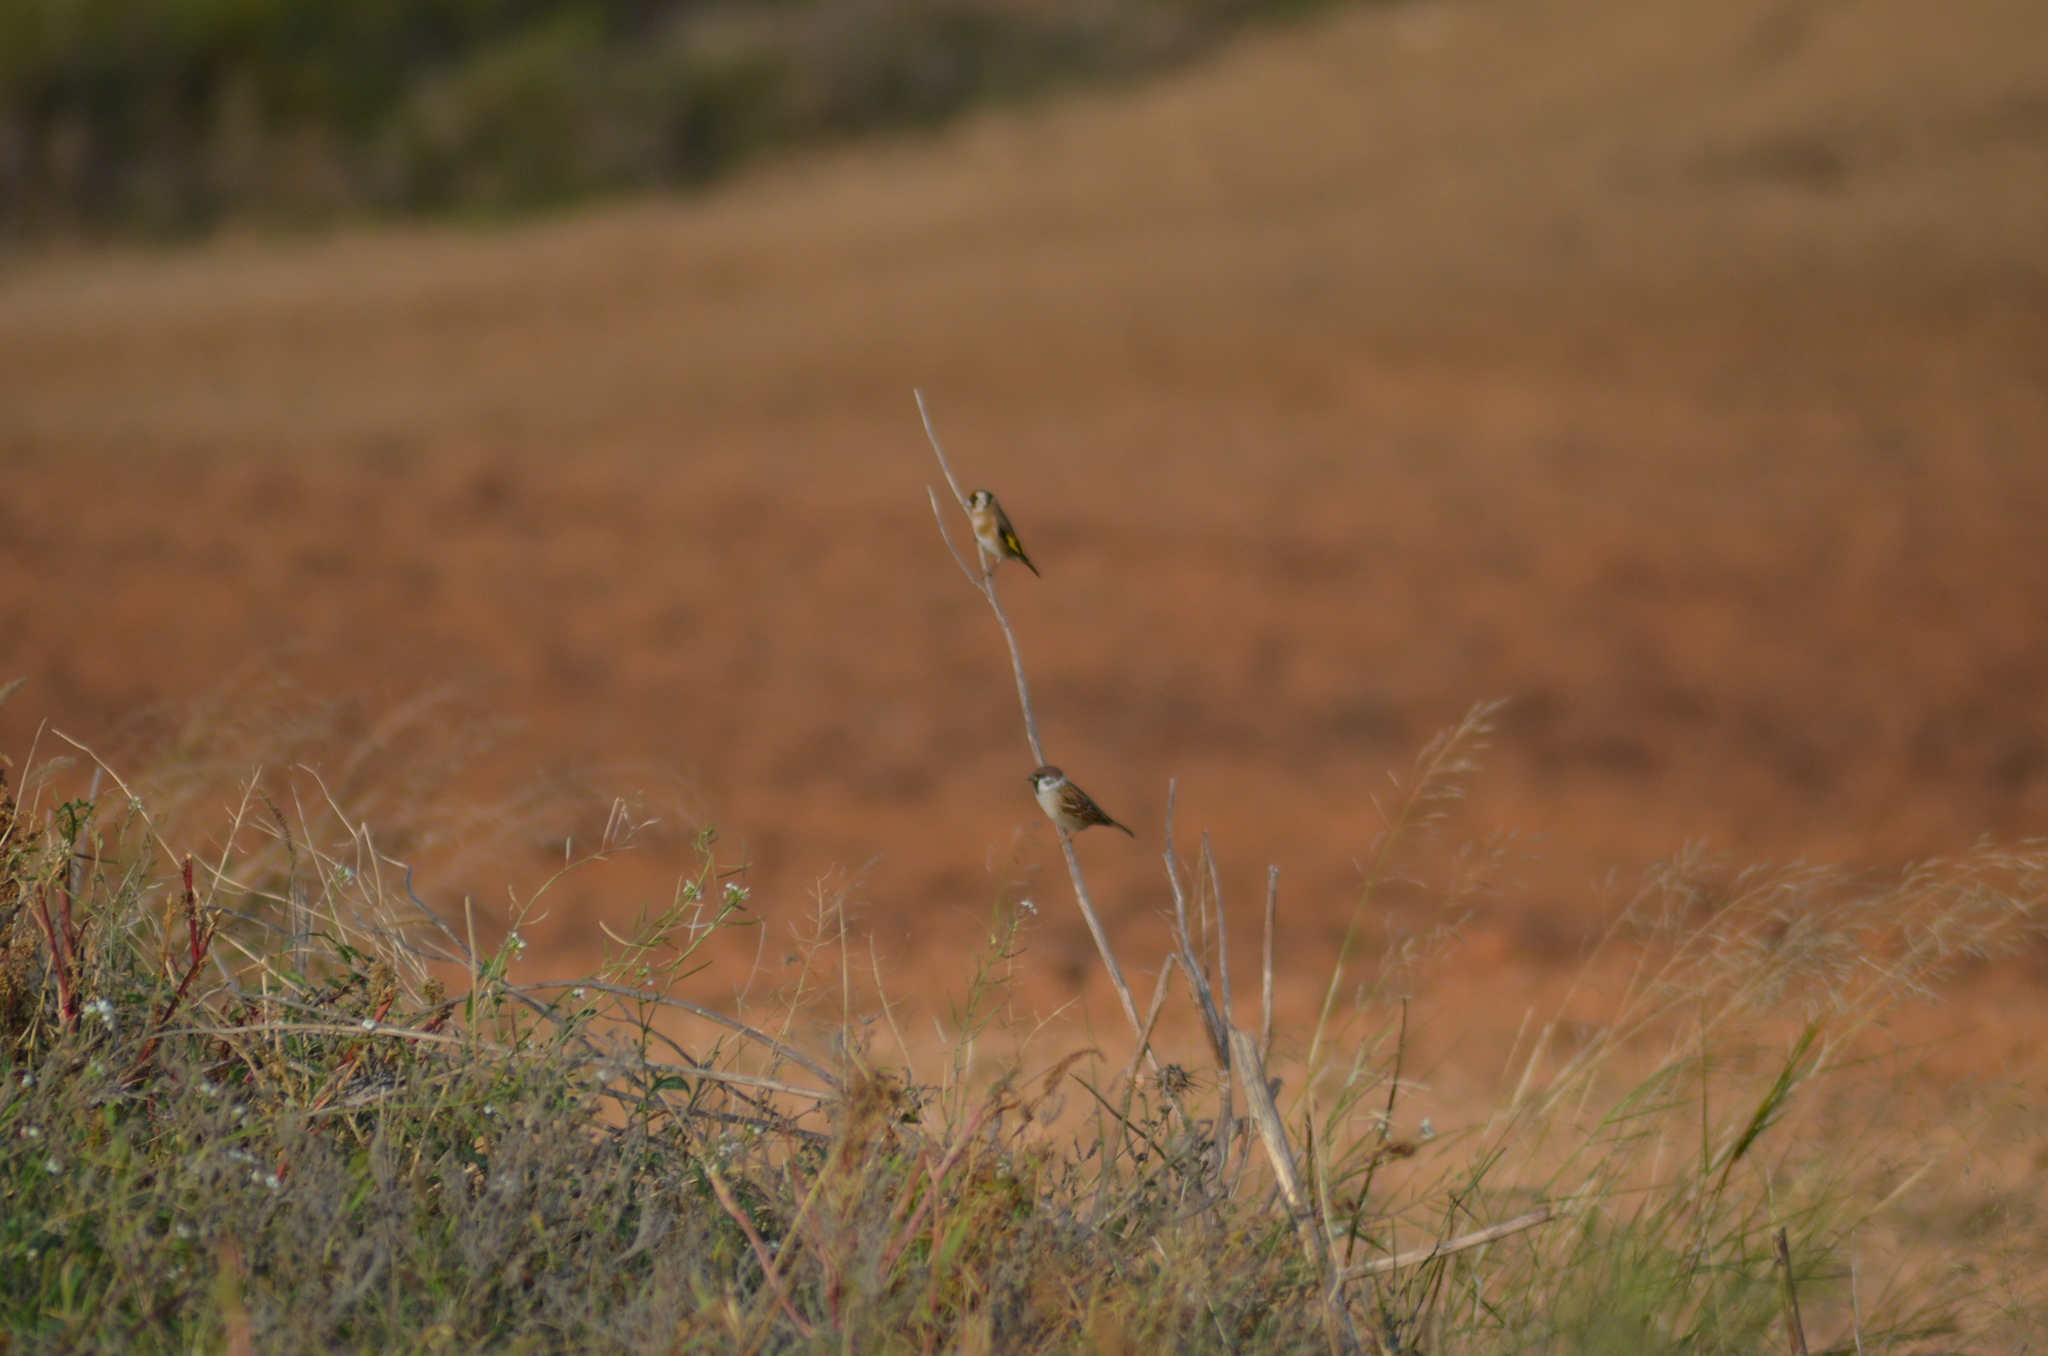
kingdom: Animalia
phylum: Chordata
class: Aves
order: Passeriformes
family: Passeridae
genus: Passer
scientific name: Passer montanus
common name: Eurasian tree sparrow
